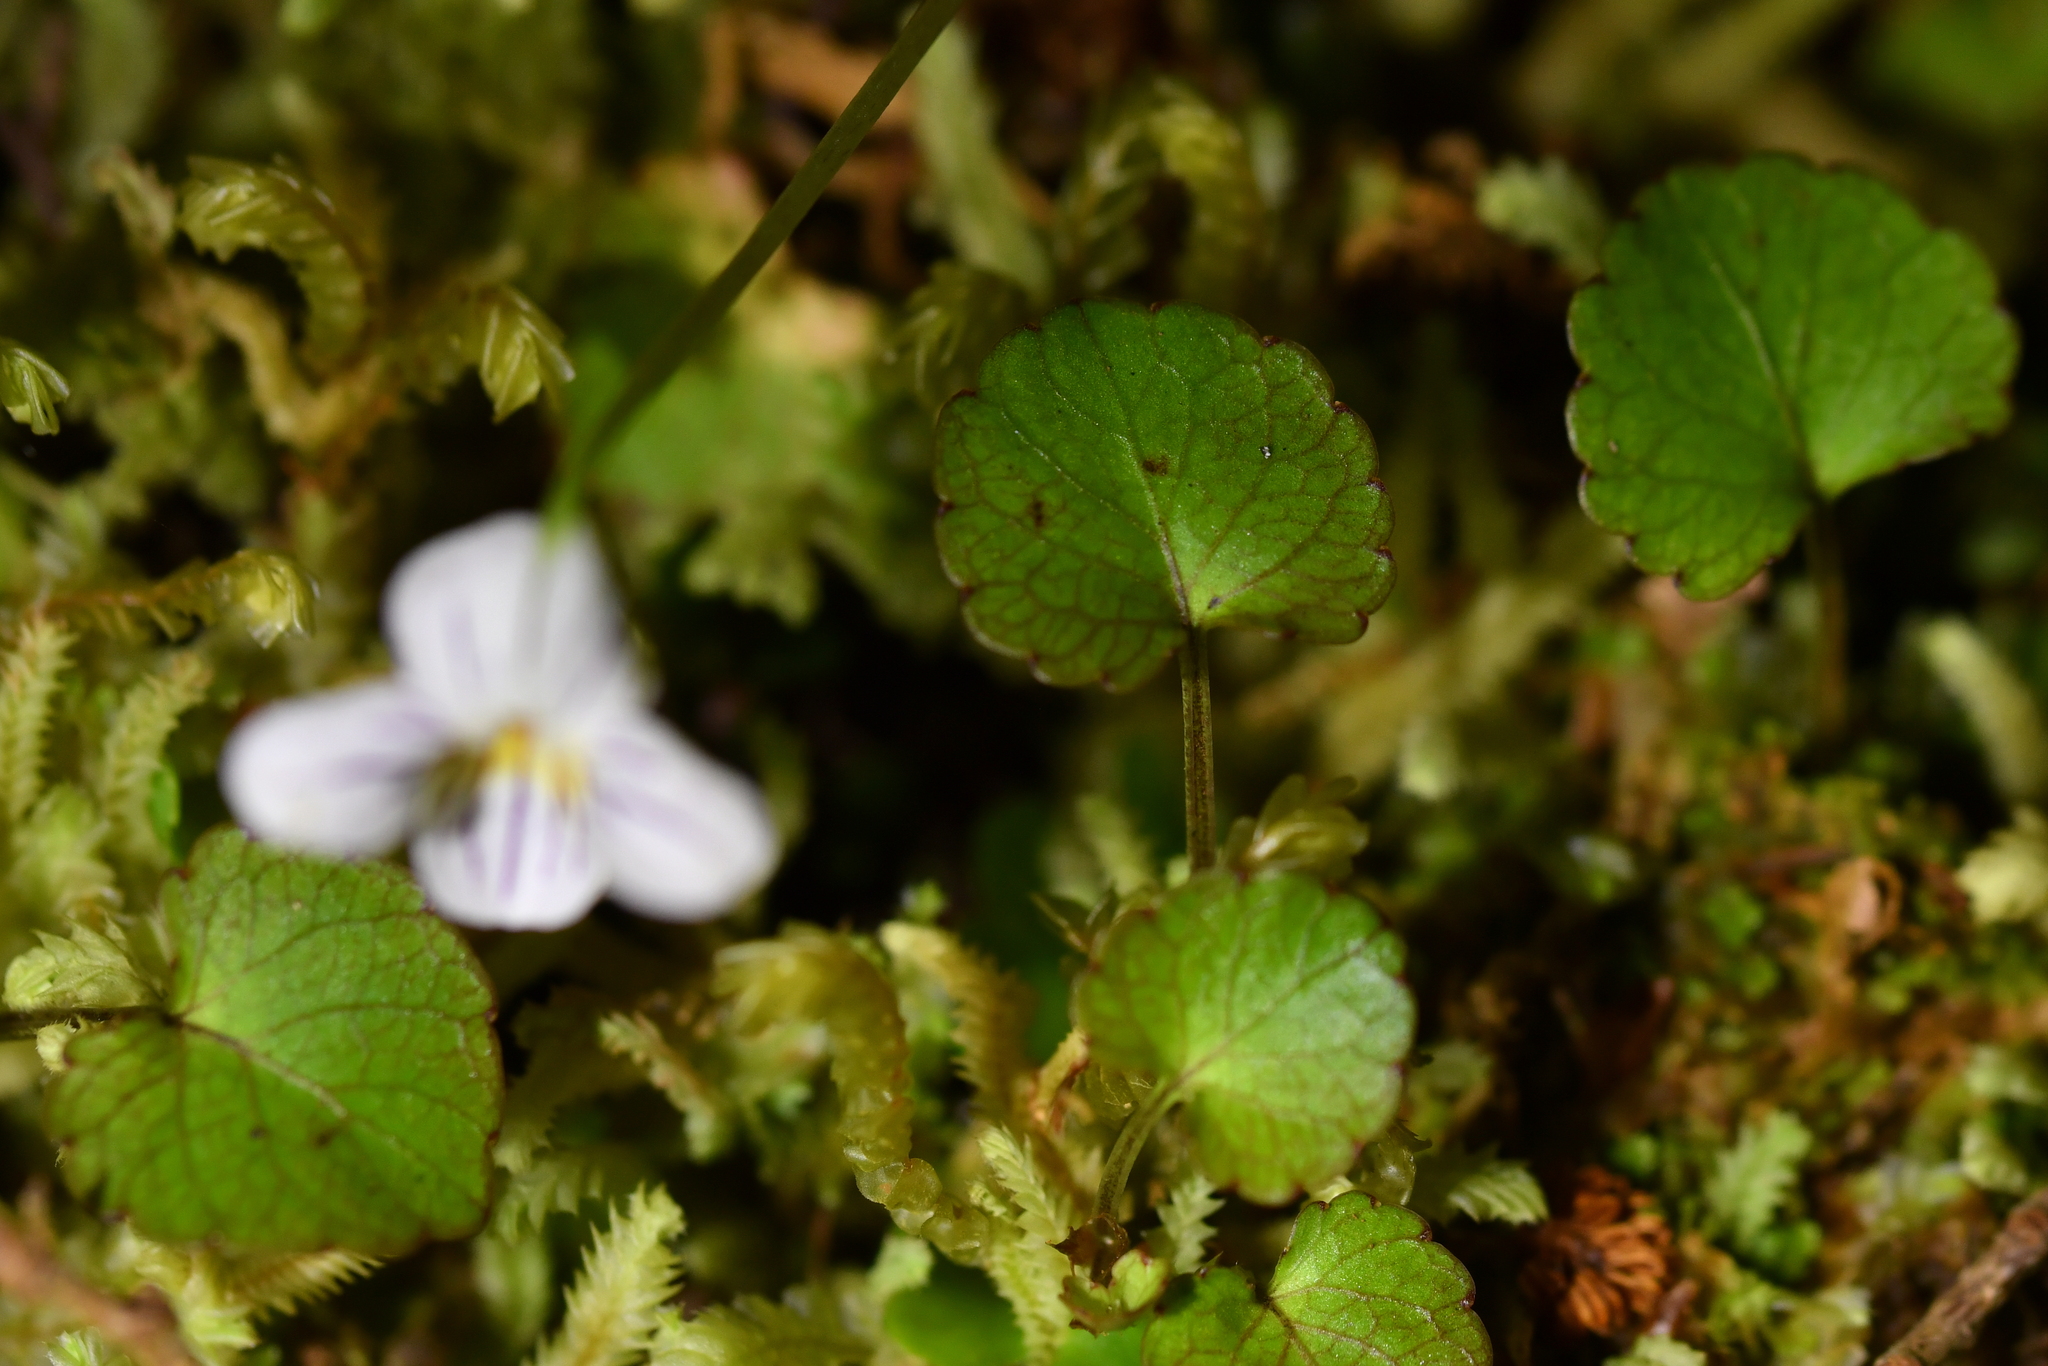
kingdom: Plantae
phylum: Tracheophyta
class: Magnoliopsida
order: Malpighiales
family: Violaceae
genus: Viola
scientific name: Viola filicaulis
